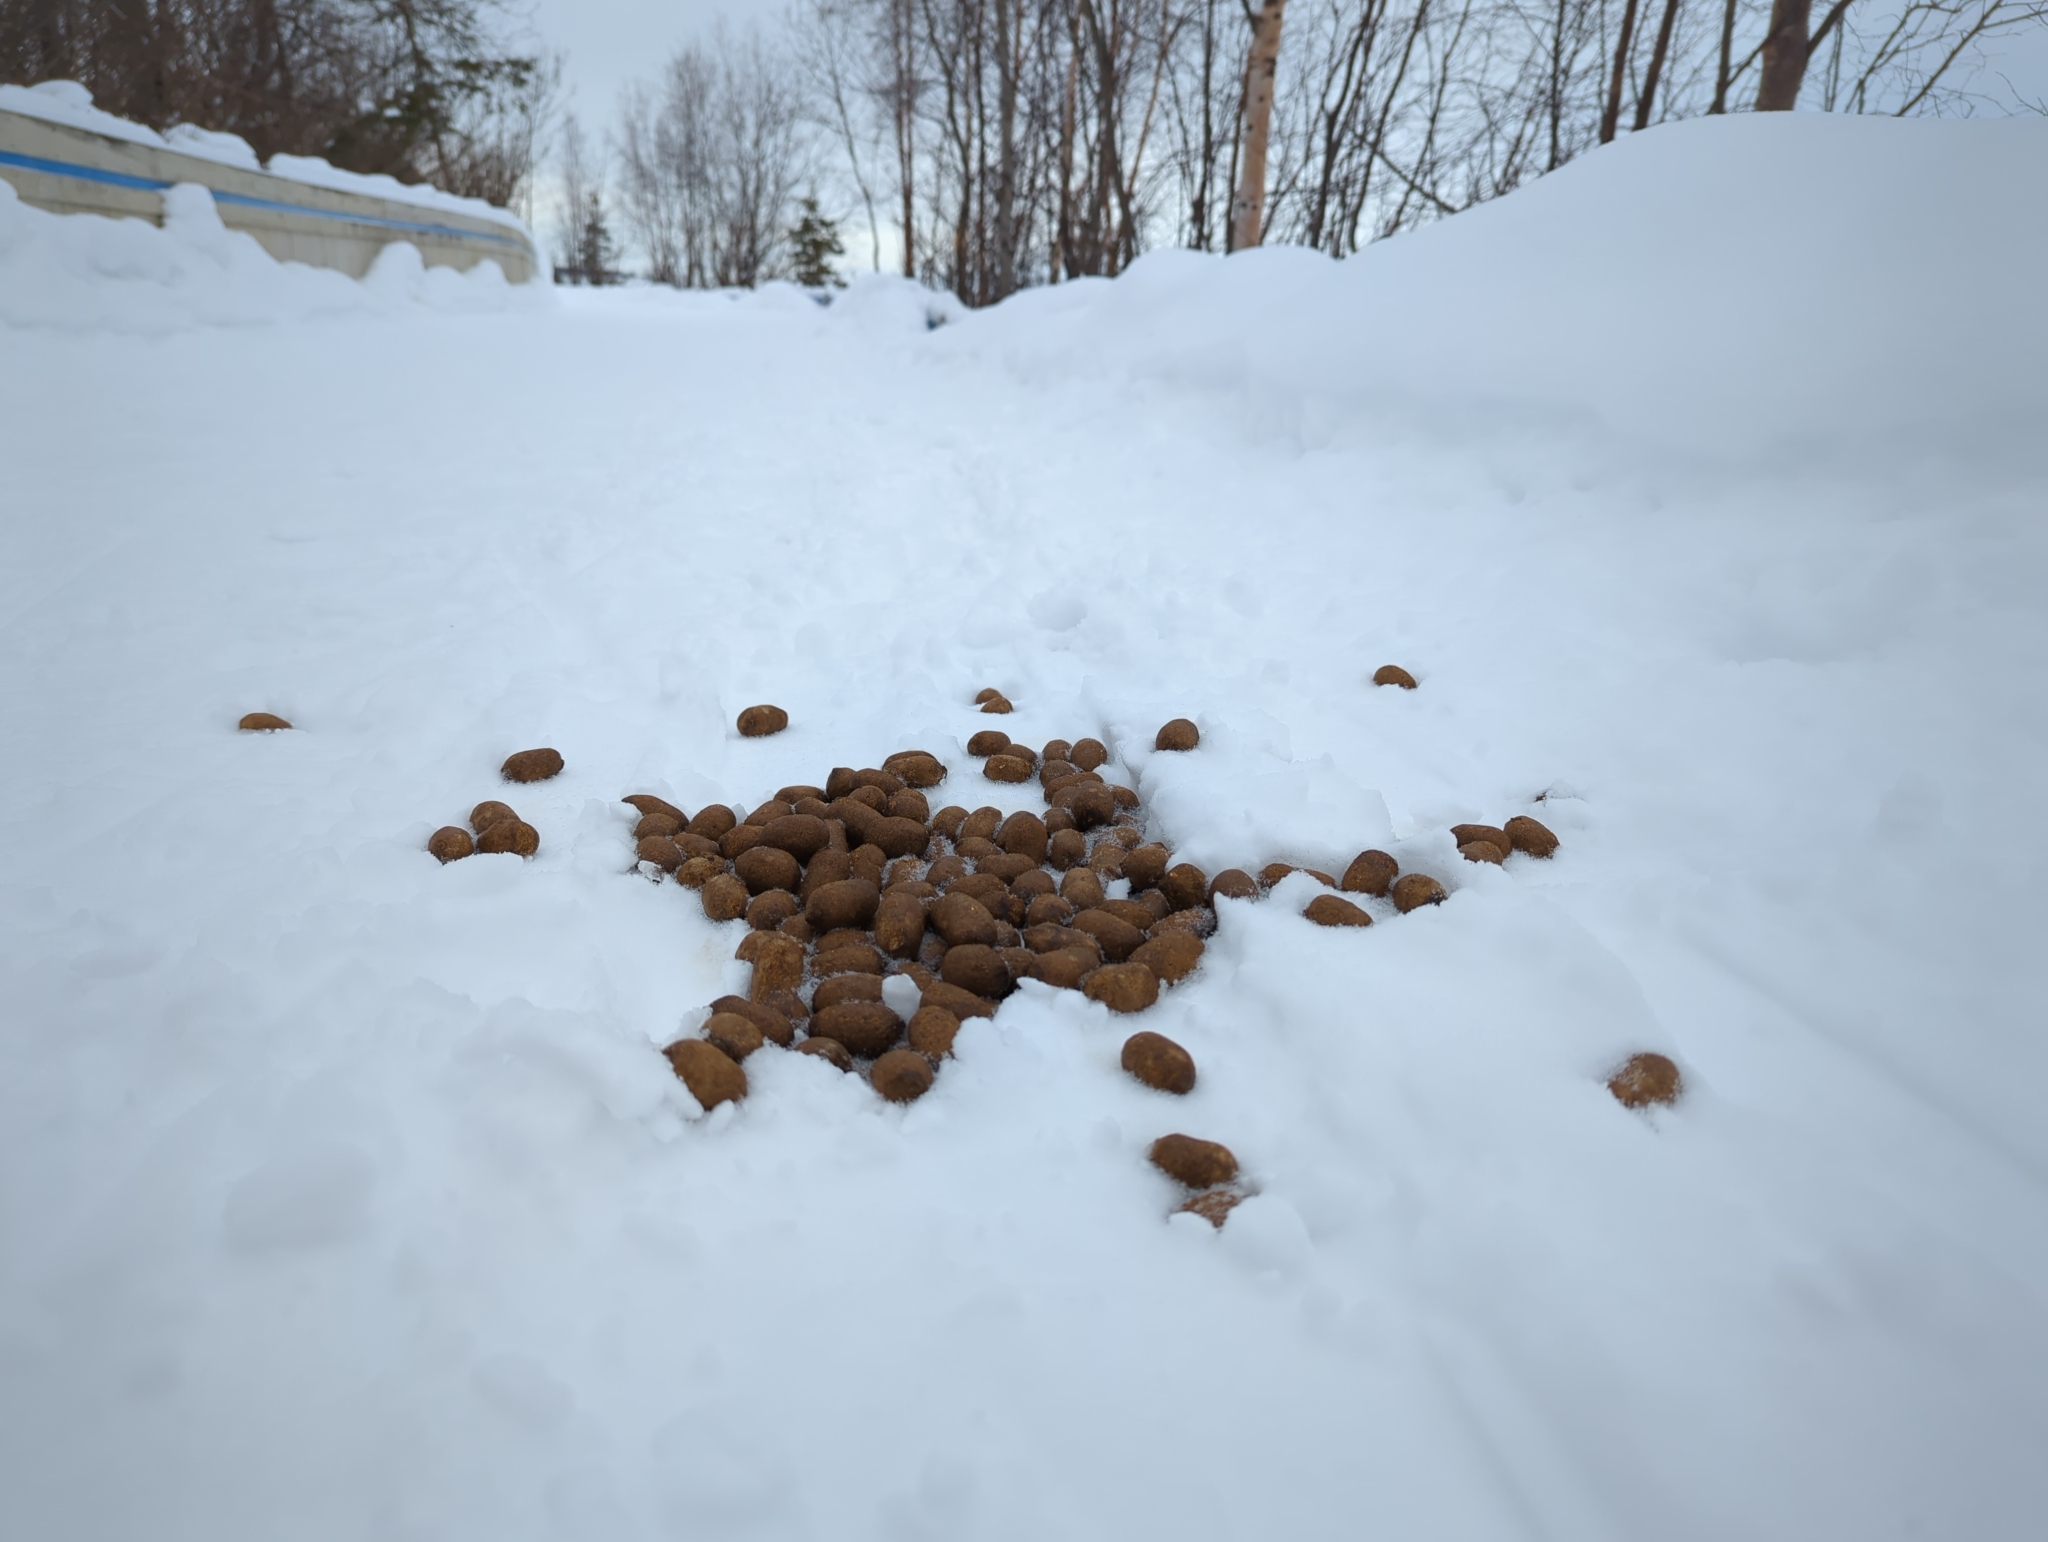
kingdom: Animalia
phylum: Chordata
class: Mammalia
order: Artiodactyla
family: Cervidae
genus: Alces
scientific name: Alces alces
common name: Moose
